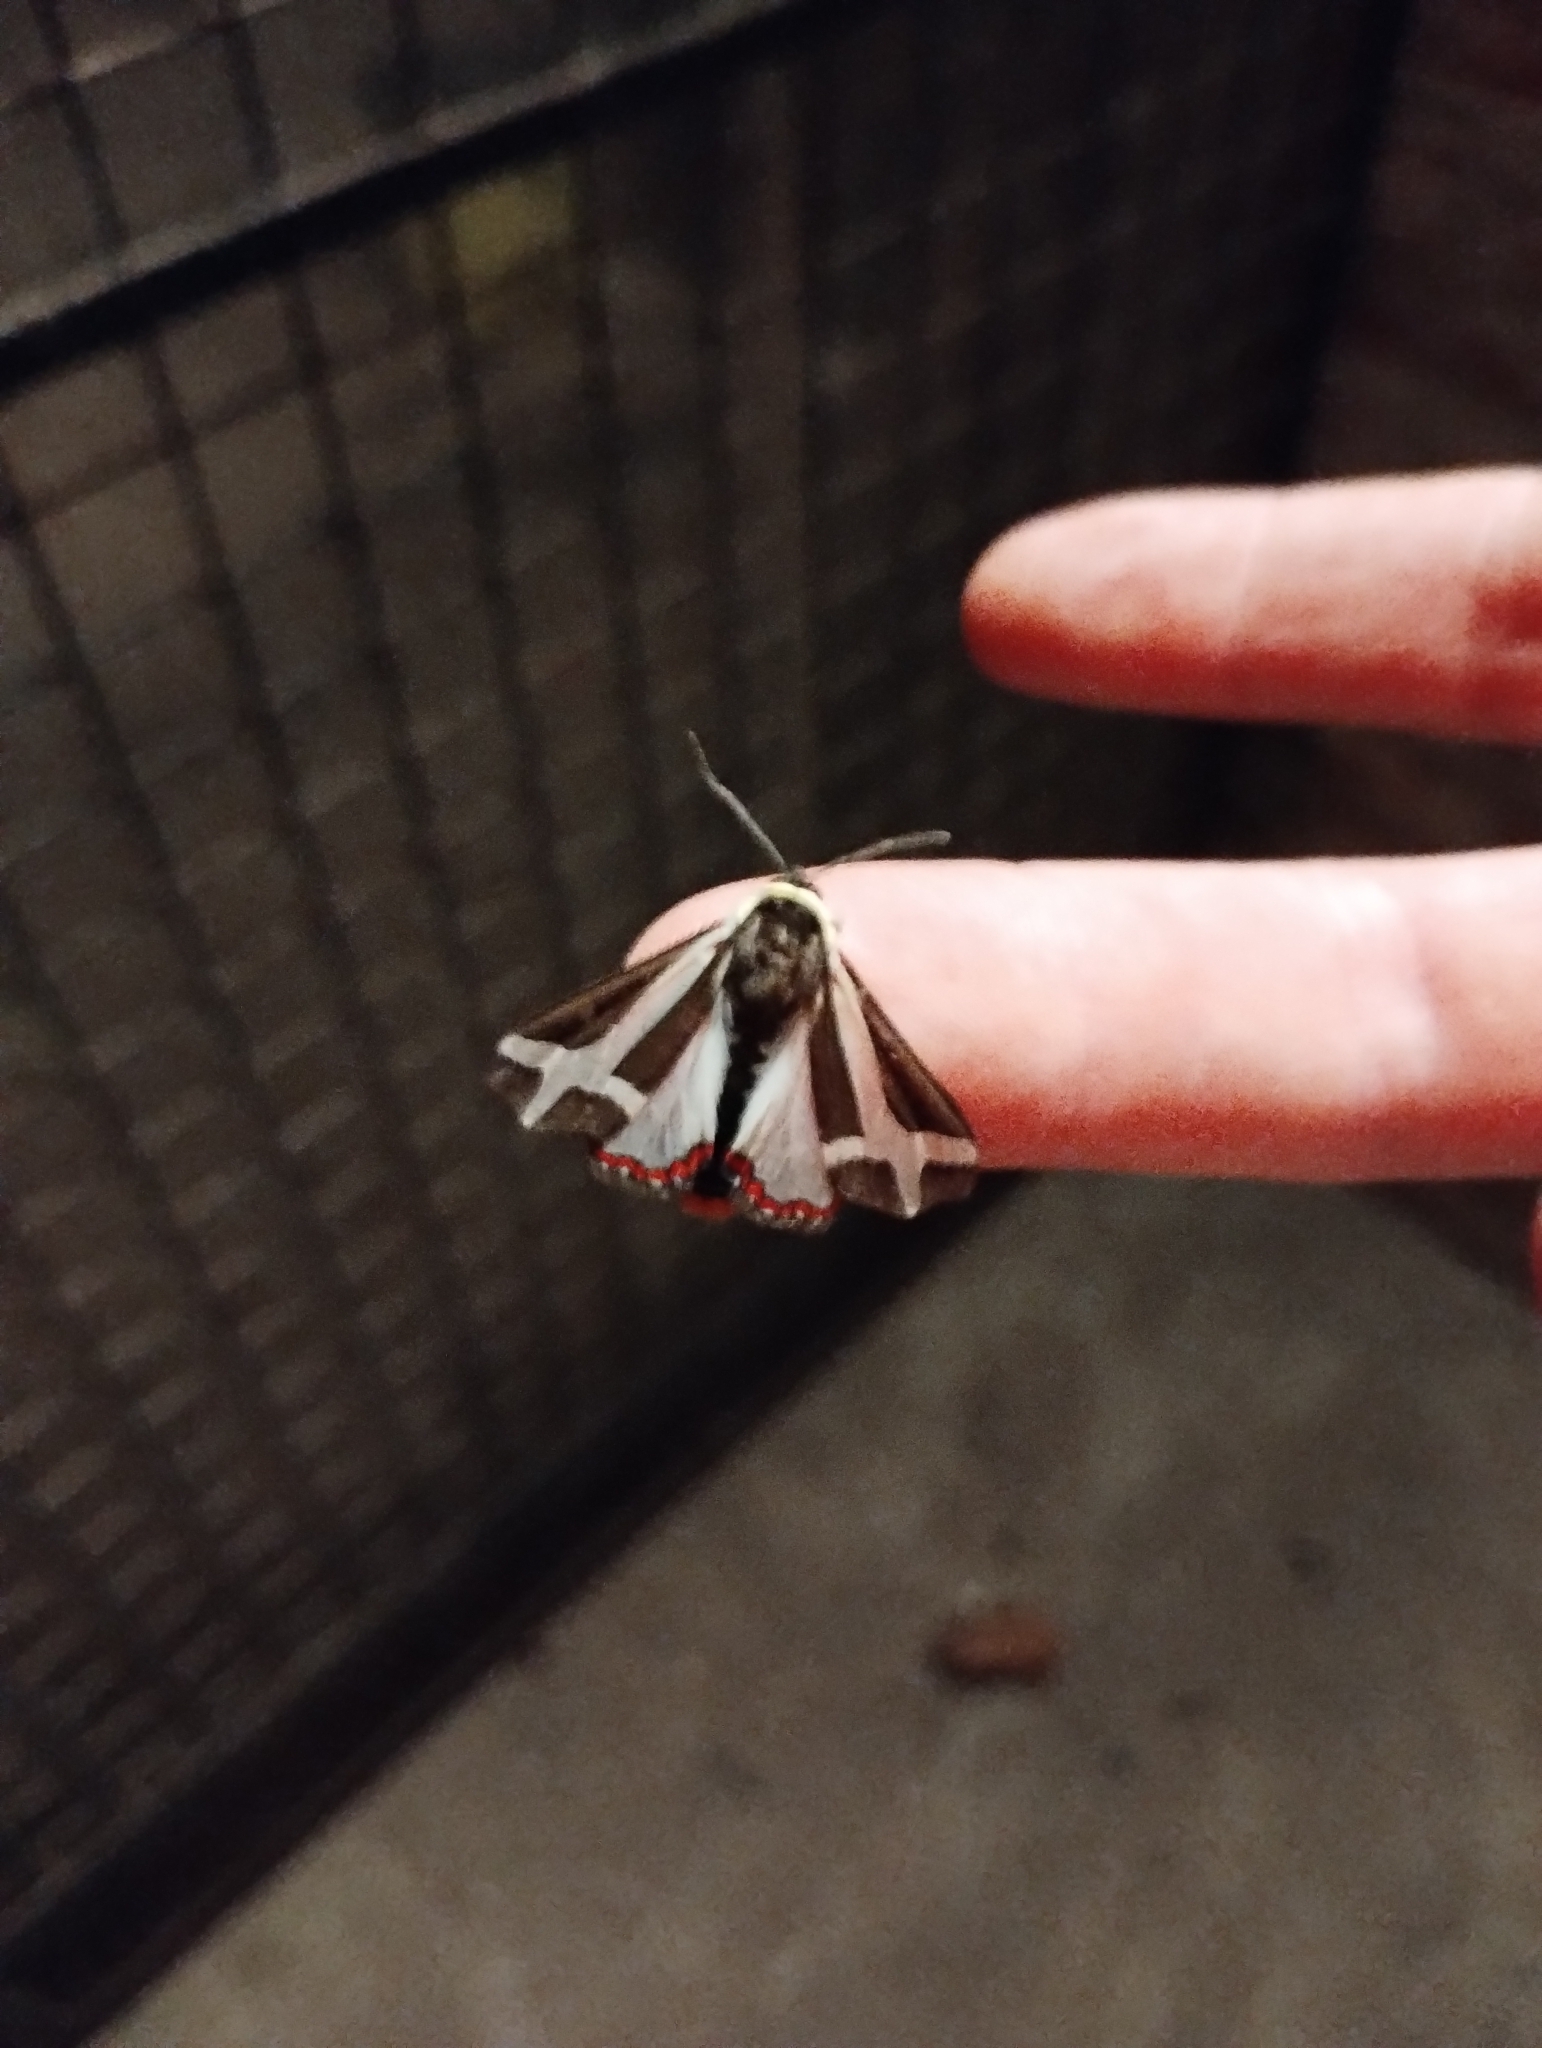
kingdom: Animalia
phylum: Arthropoda
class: Insecta
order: Lepidoptera
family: Erebidae
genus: Dysschema
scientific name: Dysschema sacrifica
